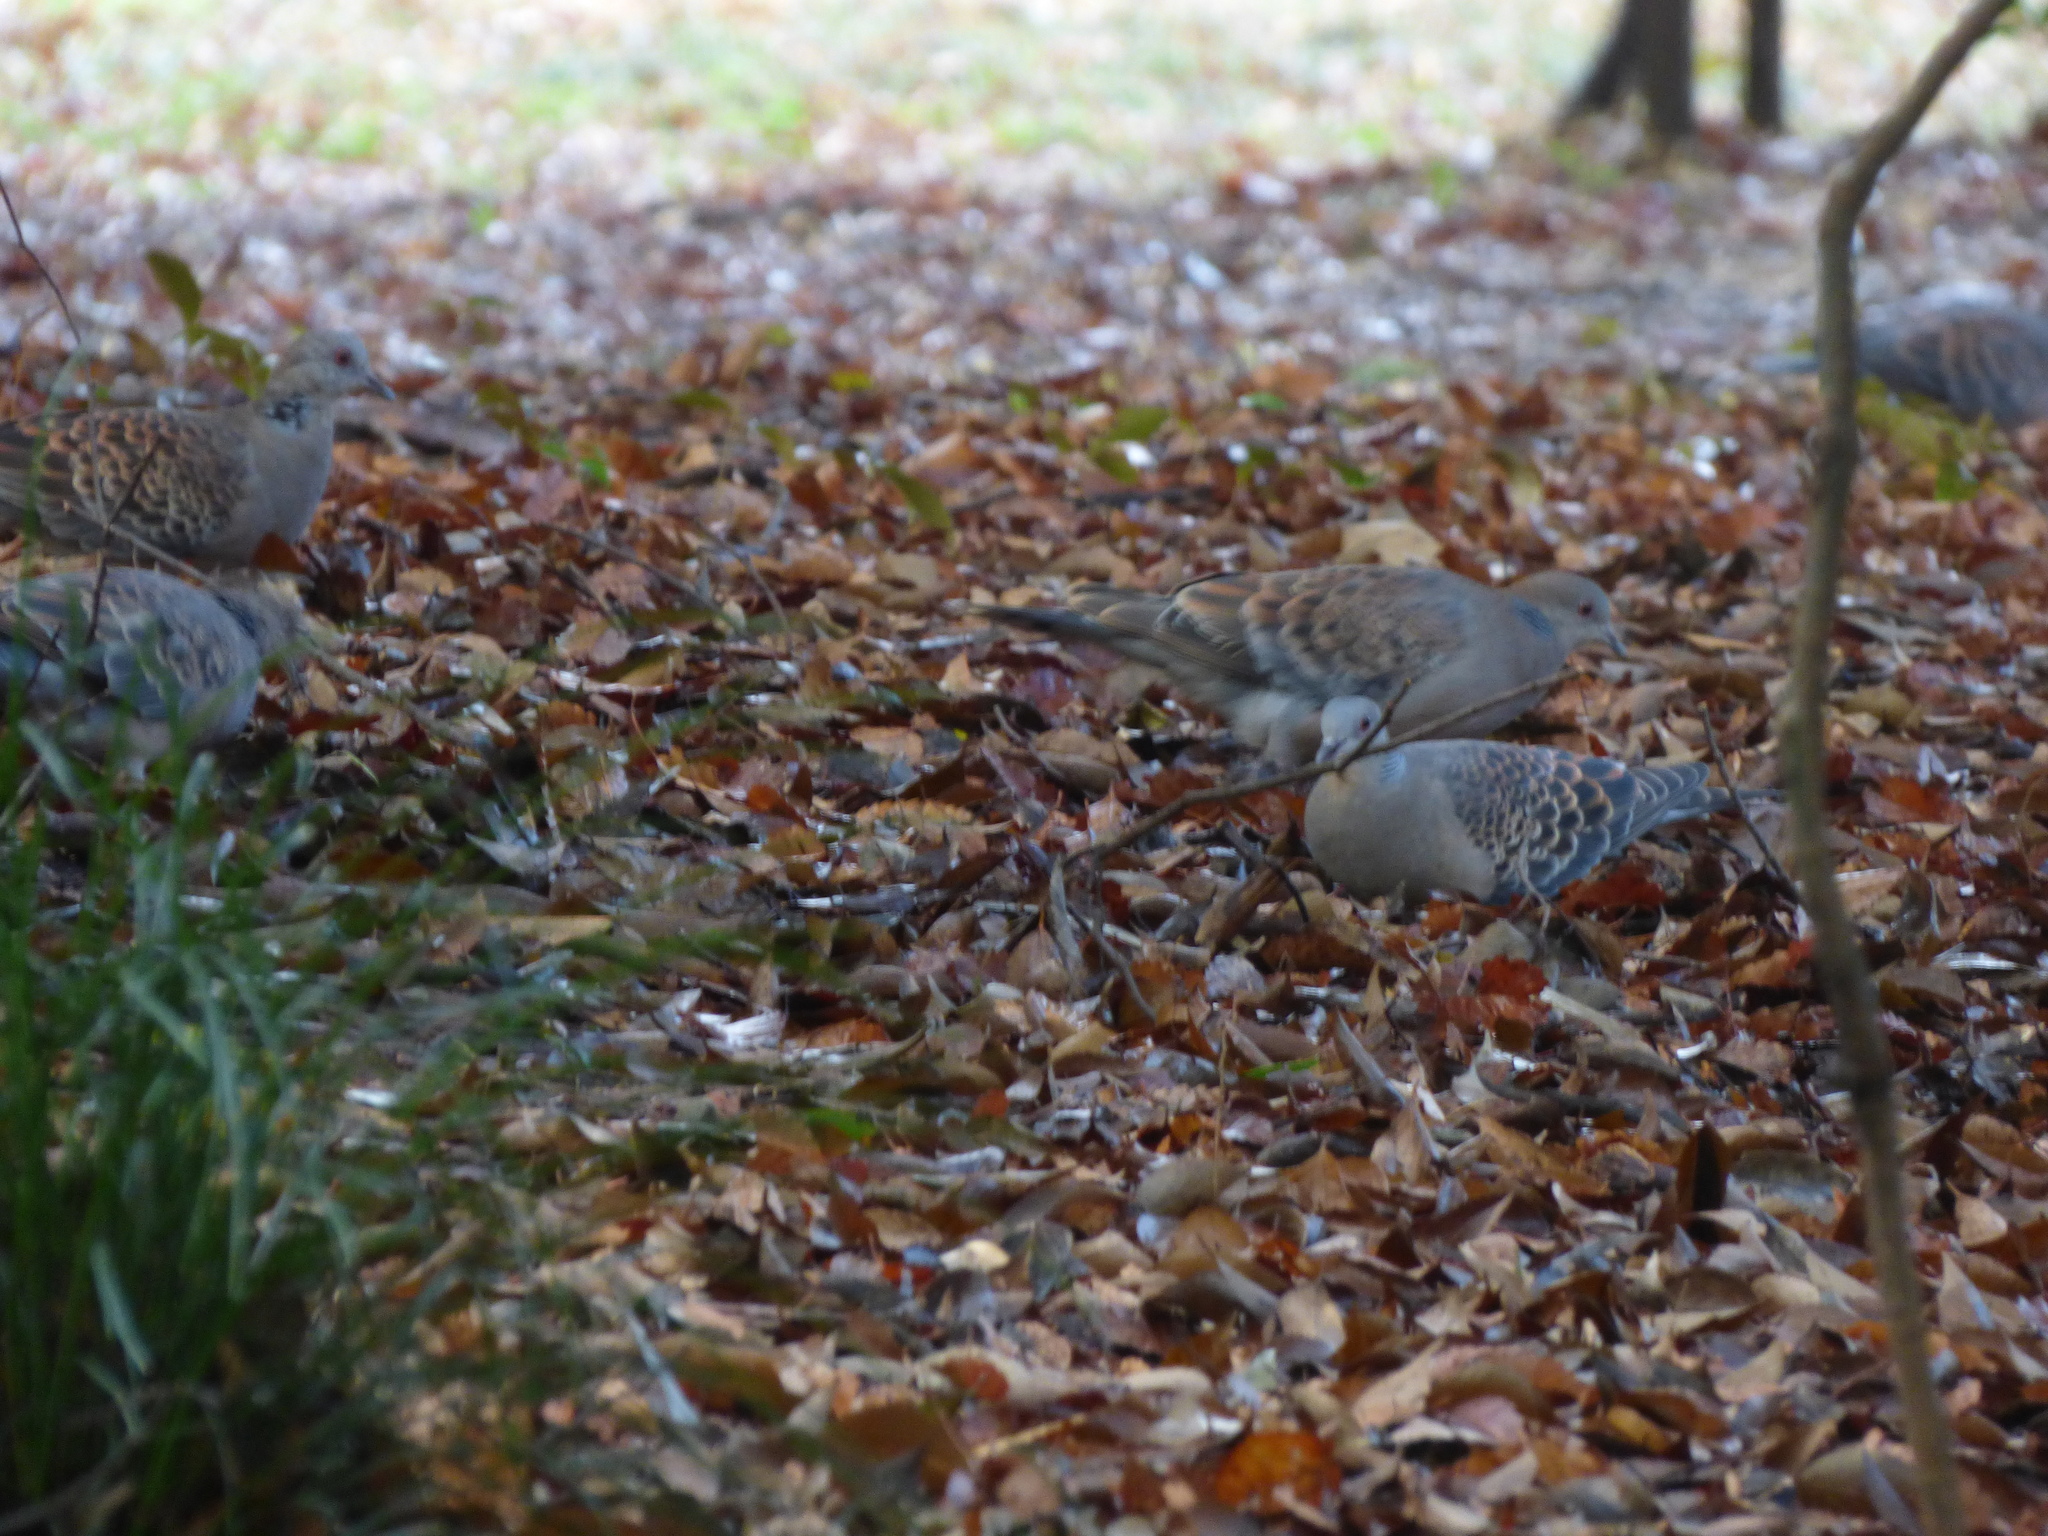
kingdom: Animalia
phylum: Chordata
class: Aves
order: Columbiformes
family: Columbidae
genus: Streptopelia
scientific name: Streptopelia orientalis
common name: Oriental turtle dove
